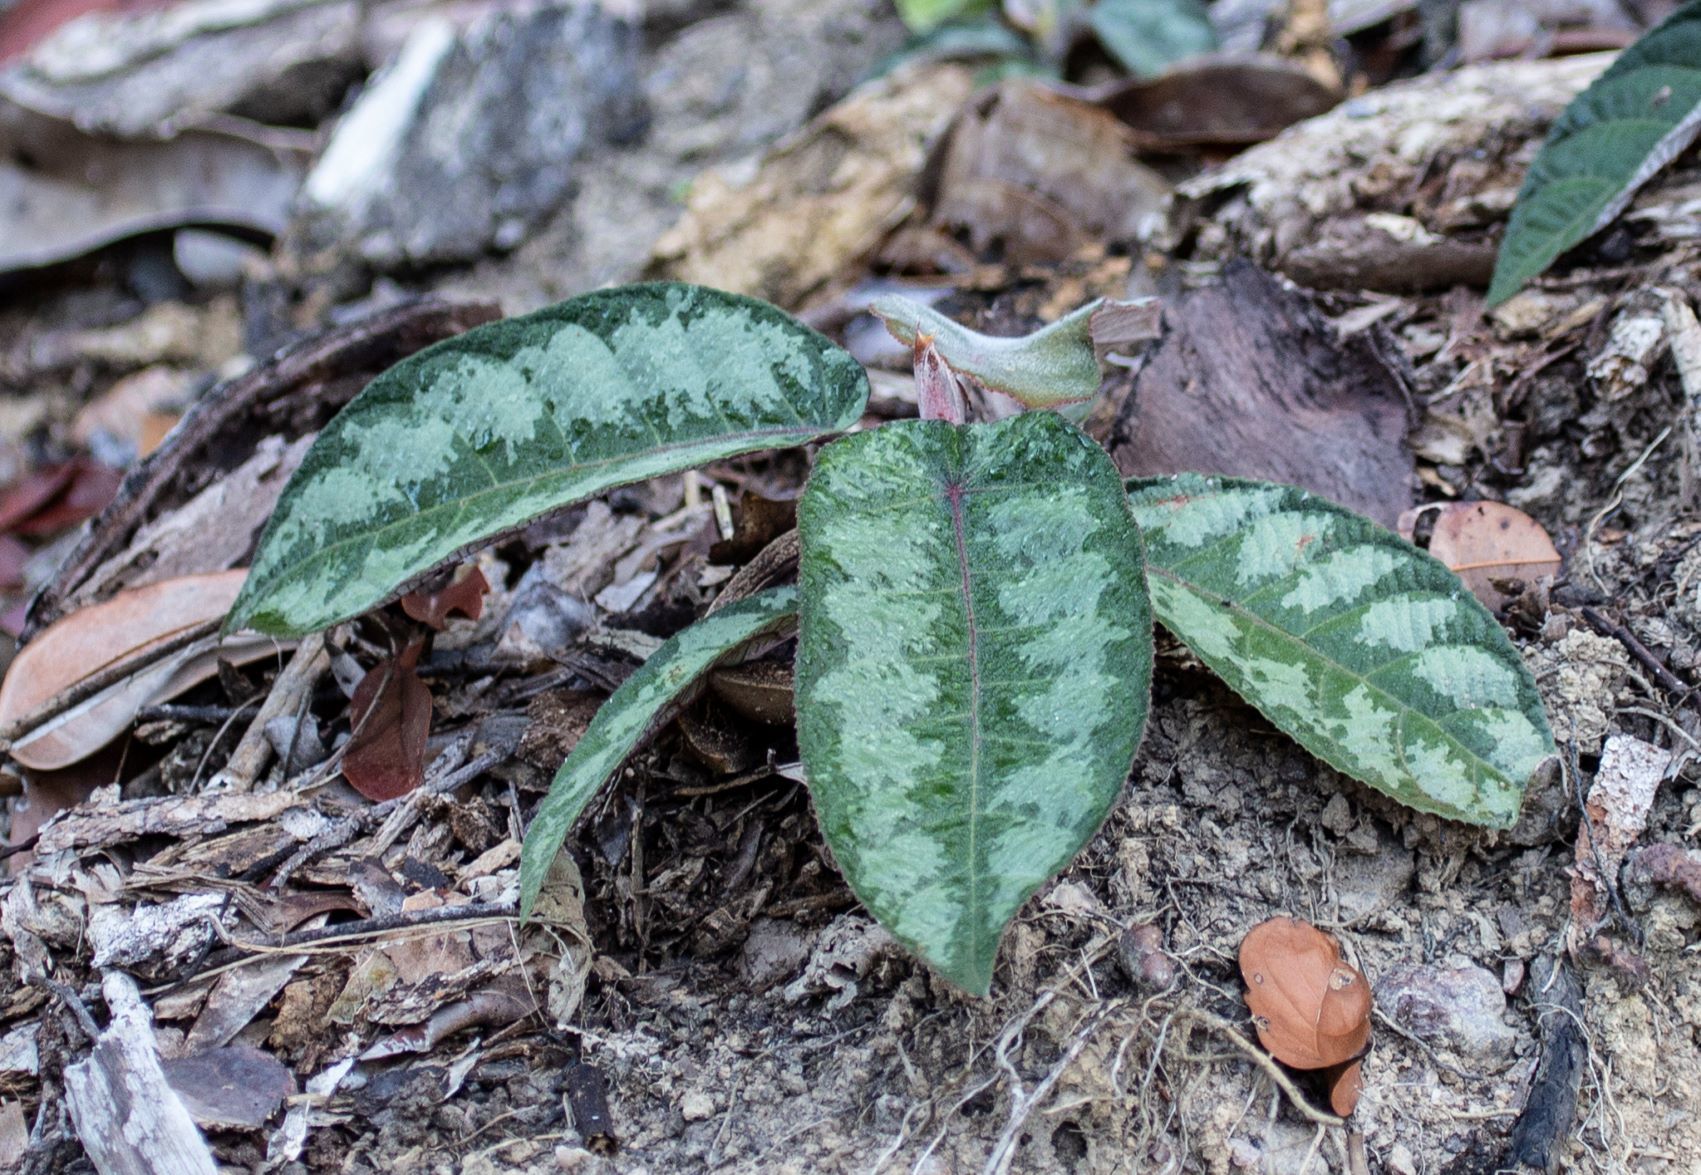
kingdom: Plantae
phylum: Tracheophyta
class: Magnoliopsida
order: Rosales
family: Urticaceae
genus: Cecropia
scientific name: Cecropia obtusa
